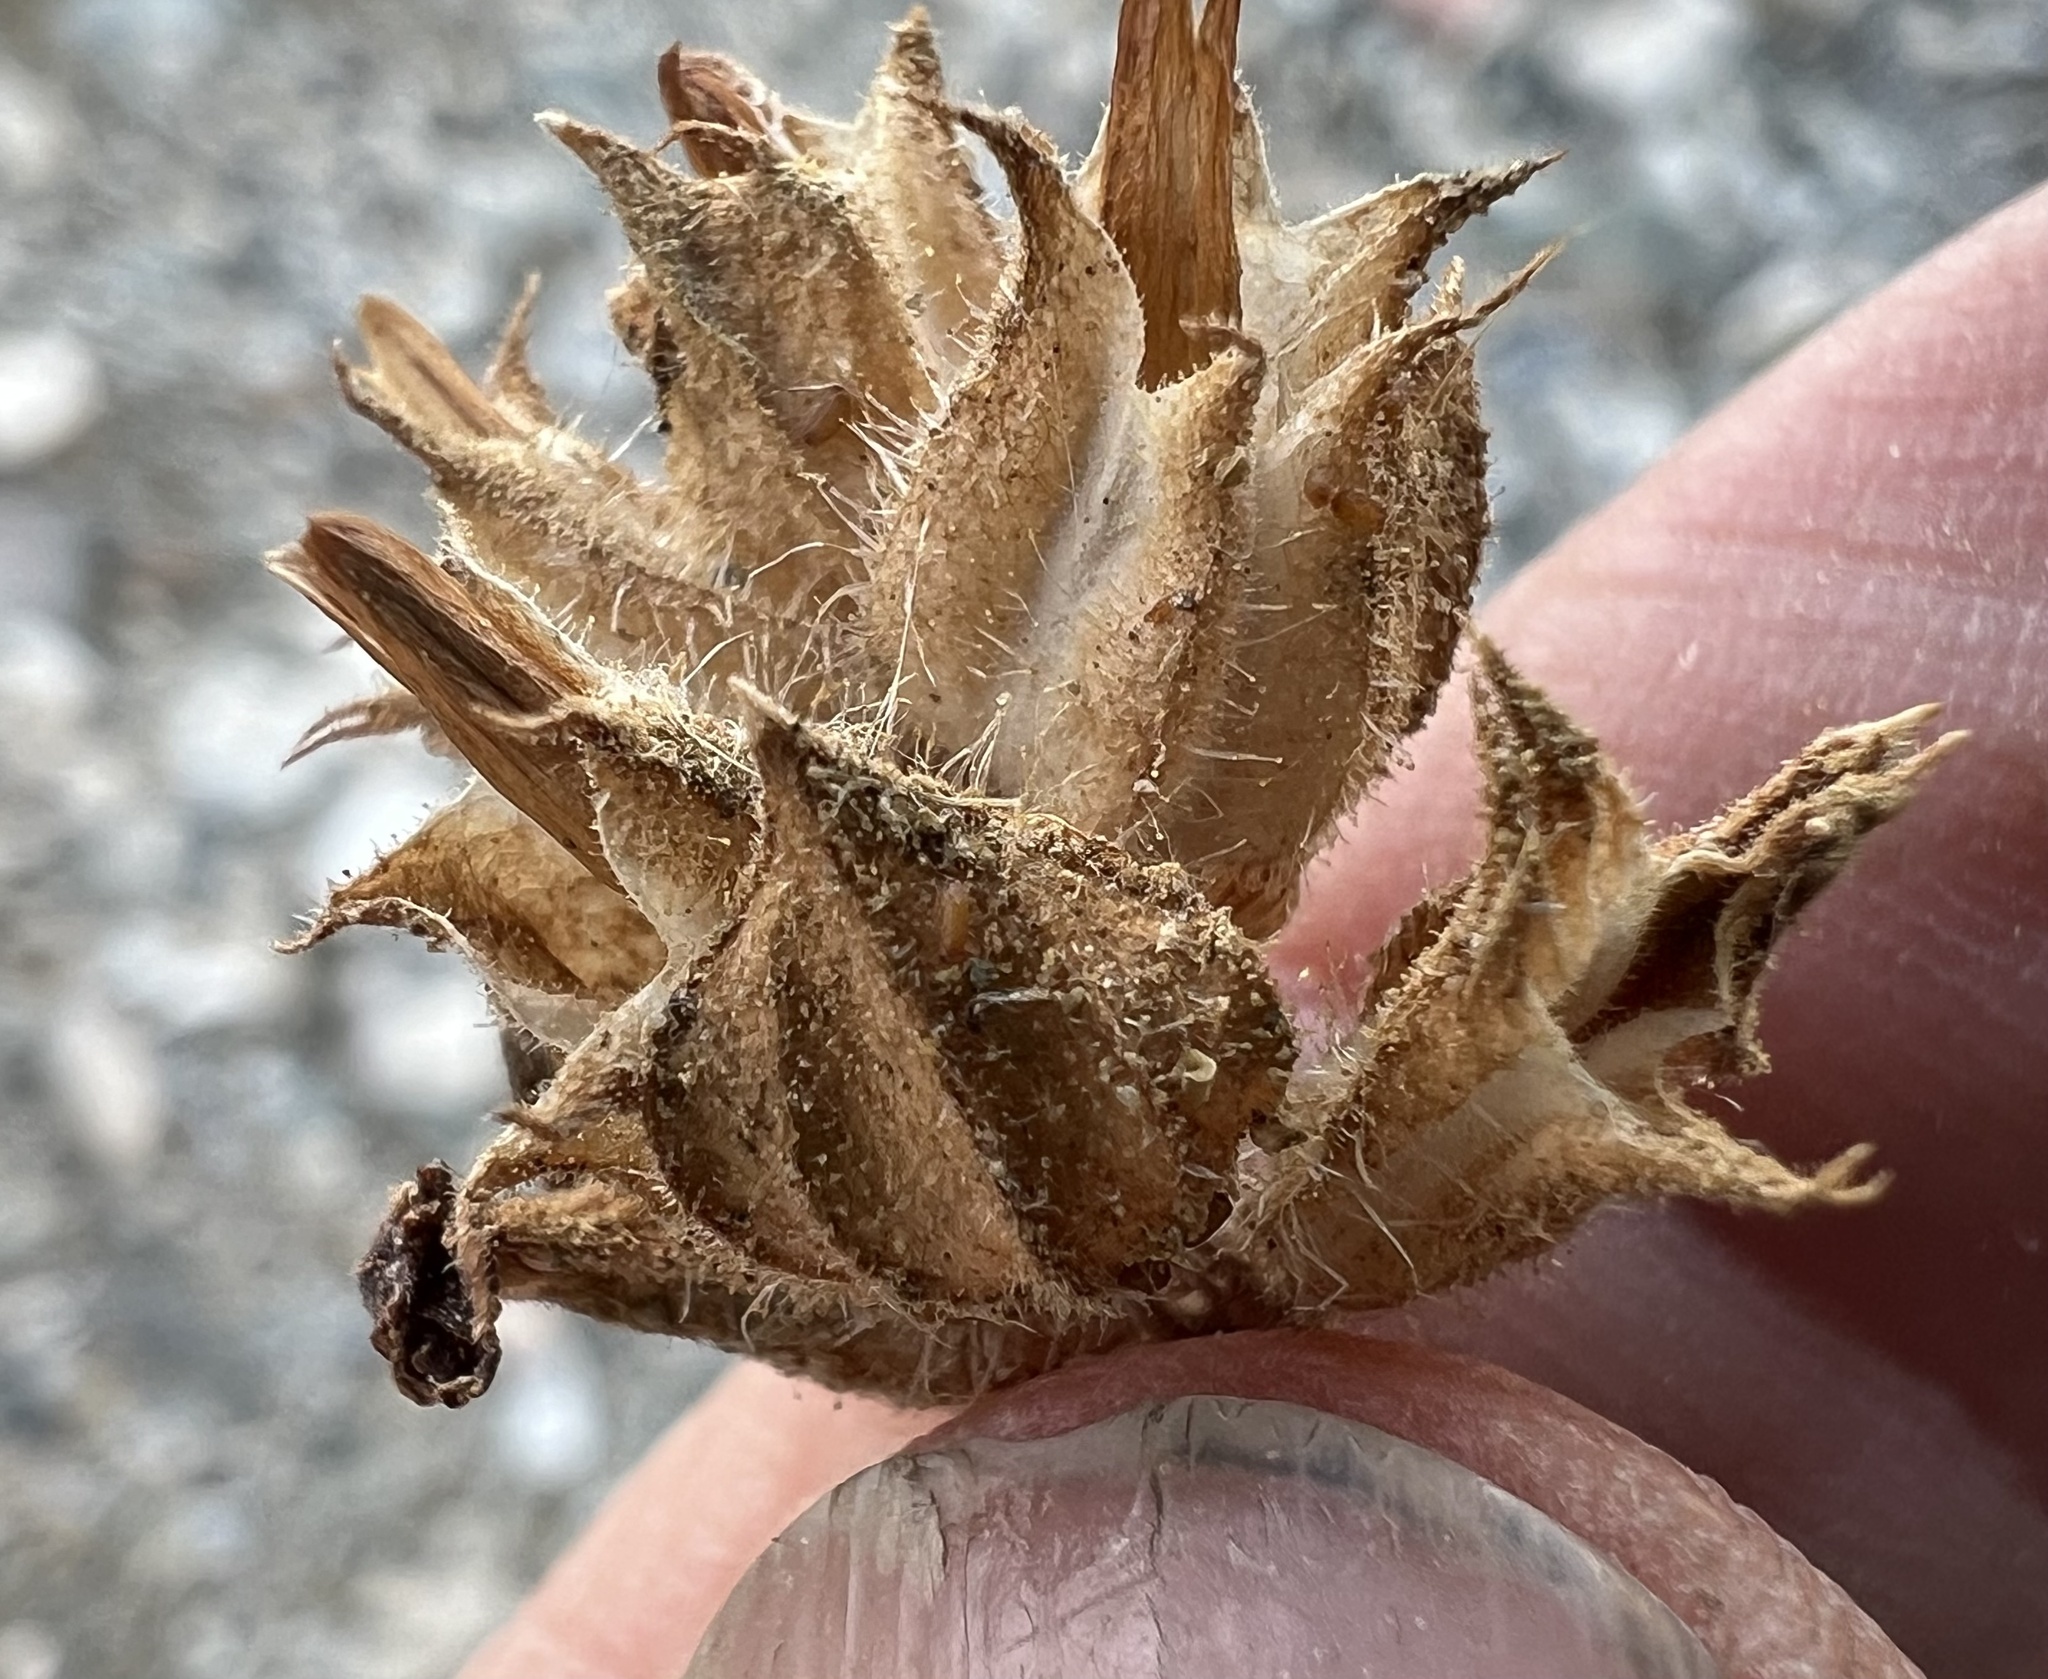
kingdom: Plantae
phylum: Tracheophyta
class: Magnoliopsida
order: Lamiales
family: Phrymaceae
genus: Diplacus
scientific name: Diplacus bigelovii
